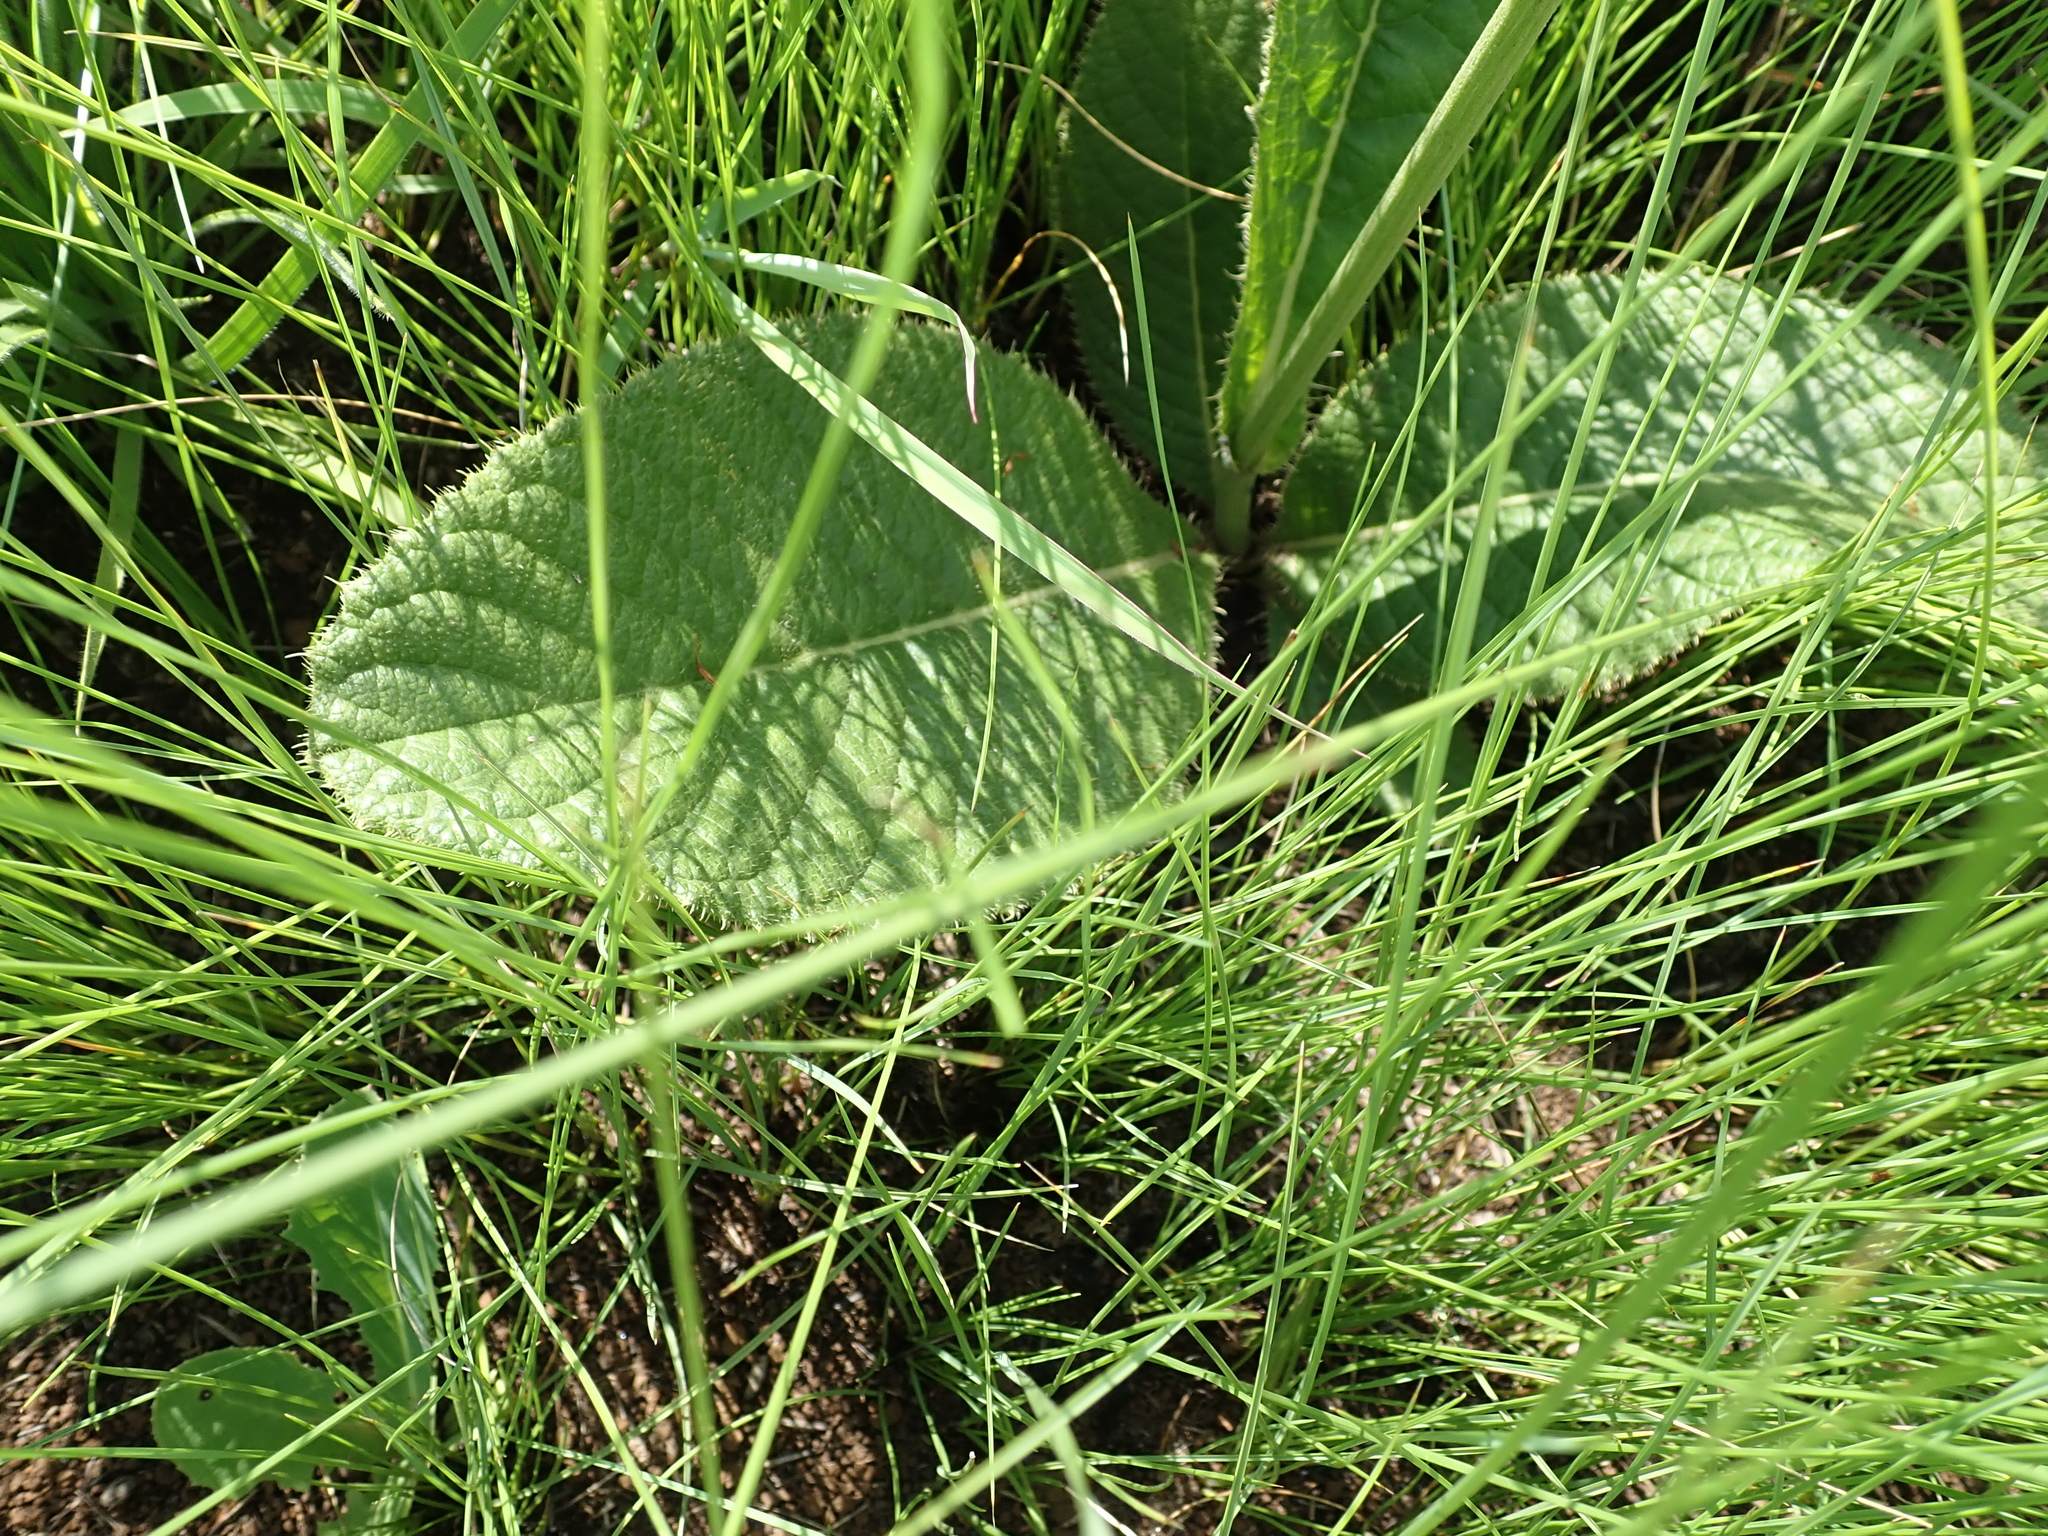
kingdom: Plantae
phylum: Tracheophyta
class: Magnoliopsida
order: Asterales
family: Asteraceae
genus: Berkheya
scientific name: Berkheya setifera
